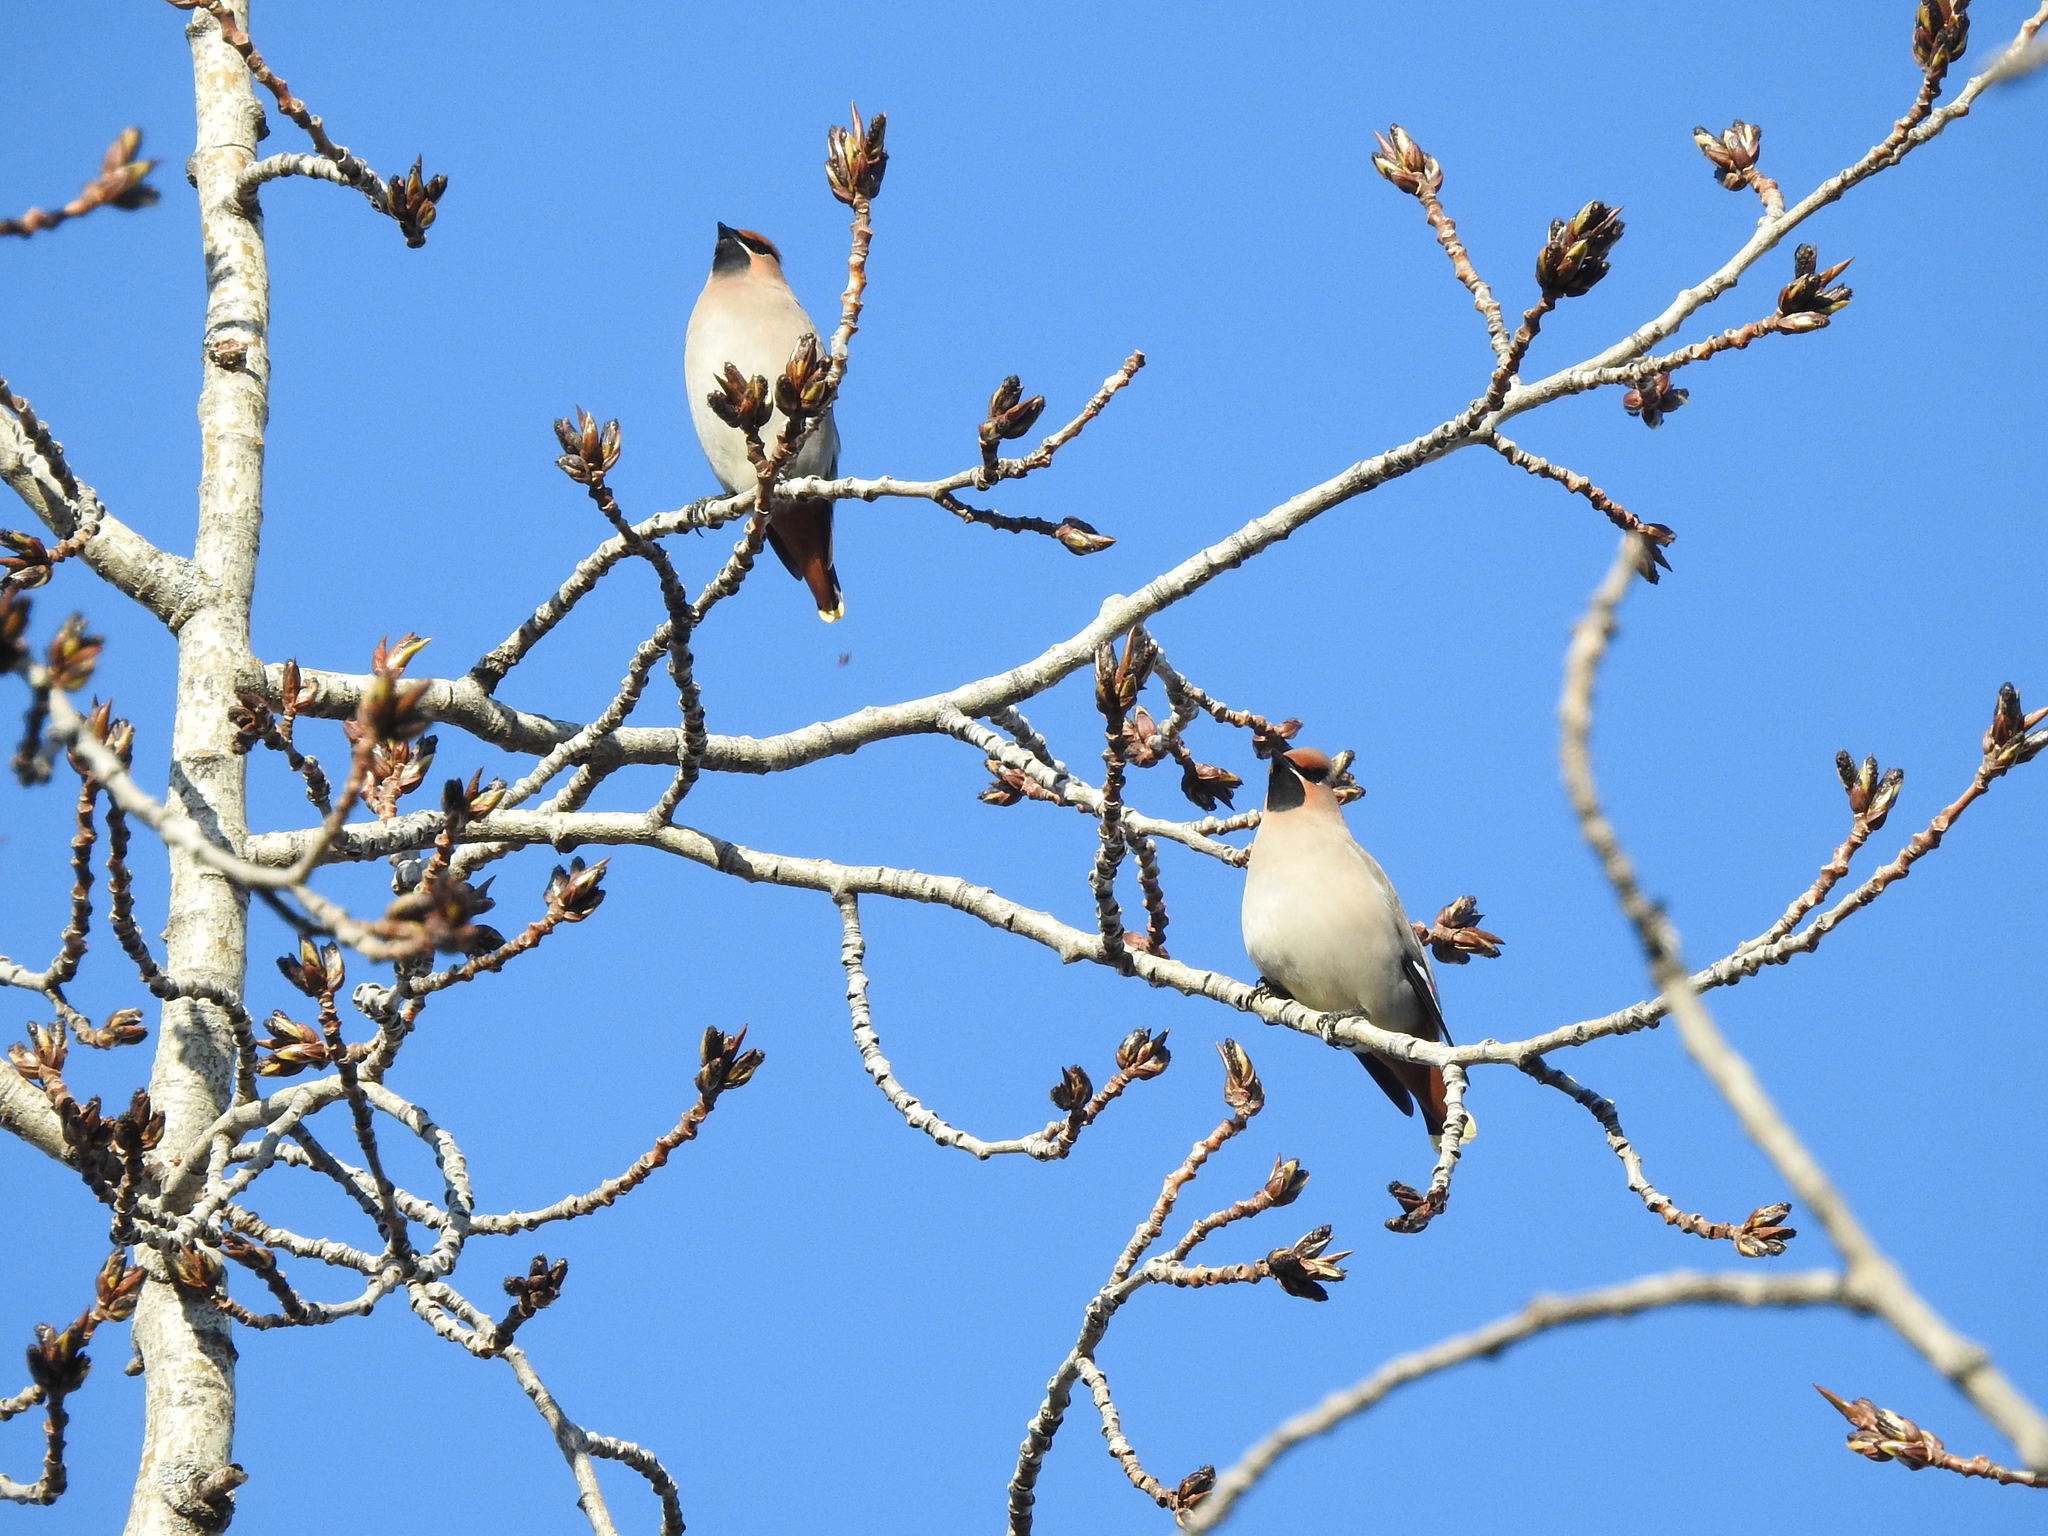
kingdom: Animalia
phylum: Chordata
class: Aves
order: Passeriformes
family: Bombycillidae
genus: Bombycilla
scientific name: Bombycilla garrulus
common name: Bohemian waxwing
